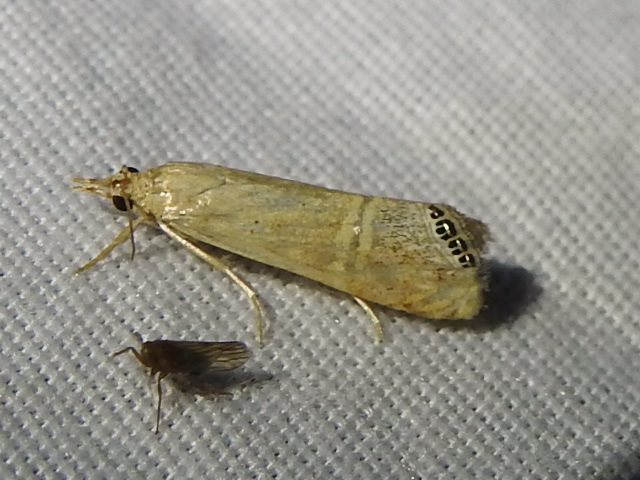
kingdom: Animalia
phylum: Arthropoda
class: Insecta
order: Lepidoptera
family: Crambidae
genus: Euchromius
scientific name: Euchromius ocellea
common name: Necklace veneer moth
